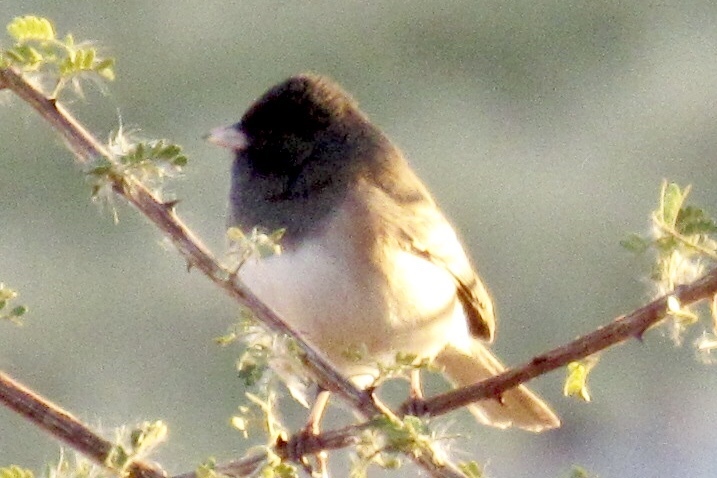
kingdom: Animalia
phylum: Chordata
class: Aves
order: Passeriformes
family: Passerellidae
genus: Junco
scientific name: Junco hyemalis
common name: Dark-eyed junco
